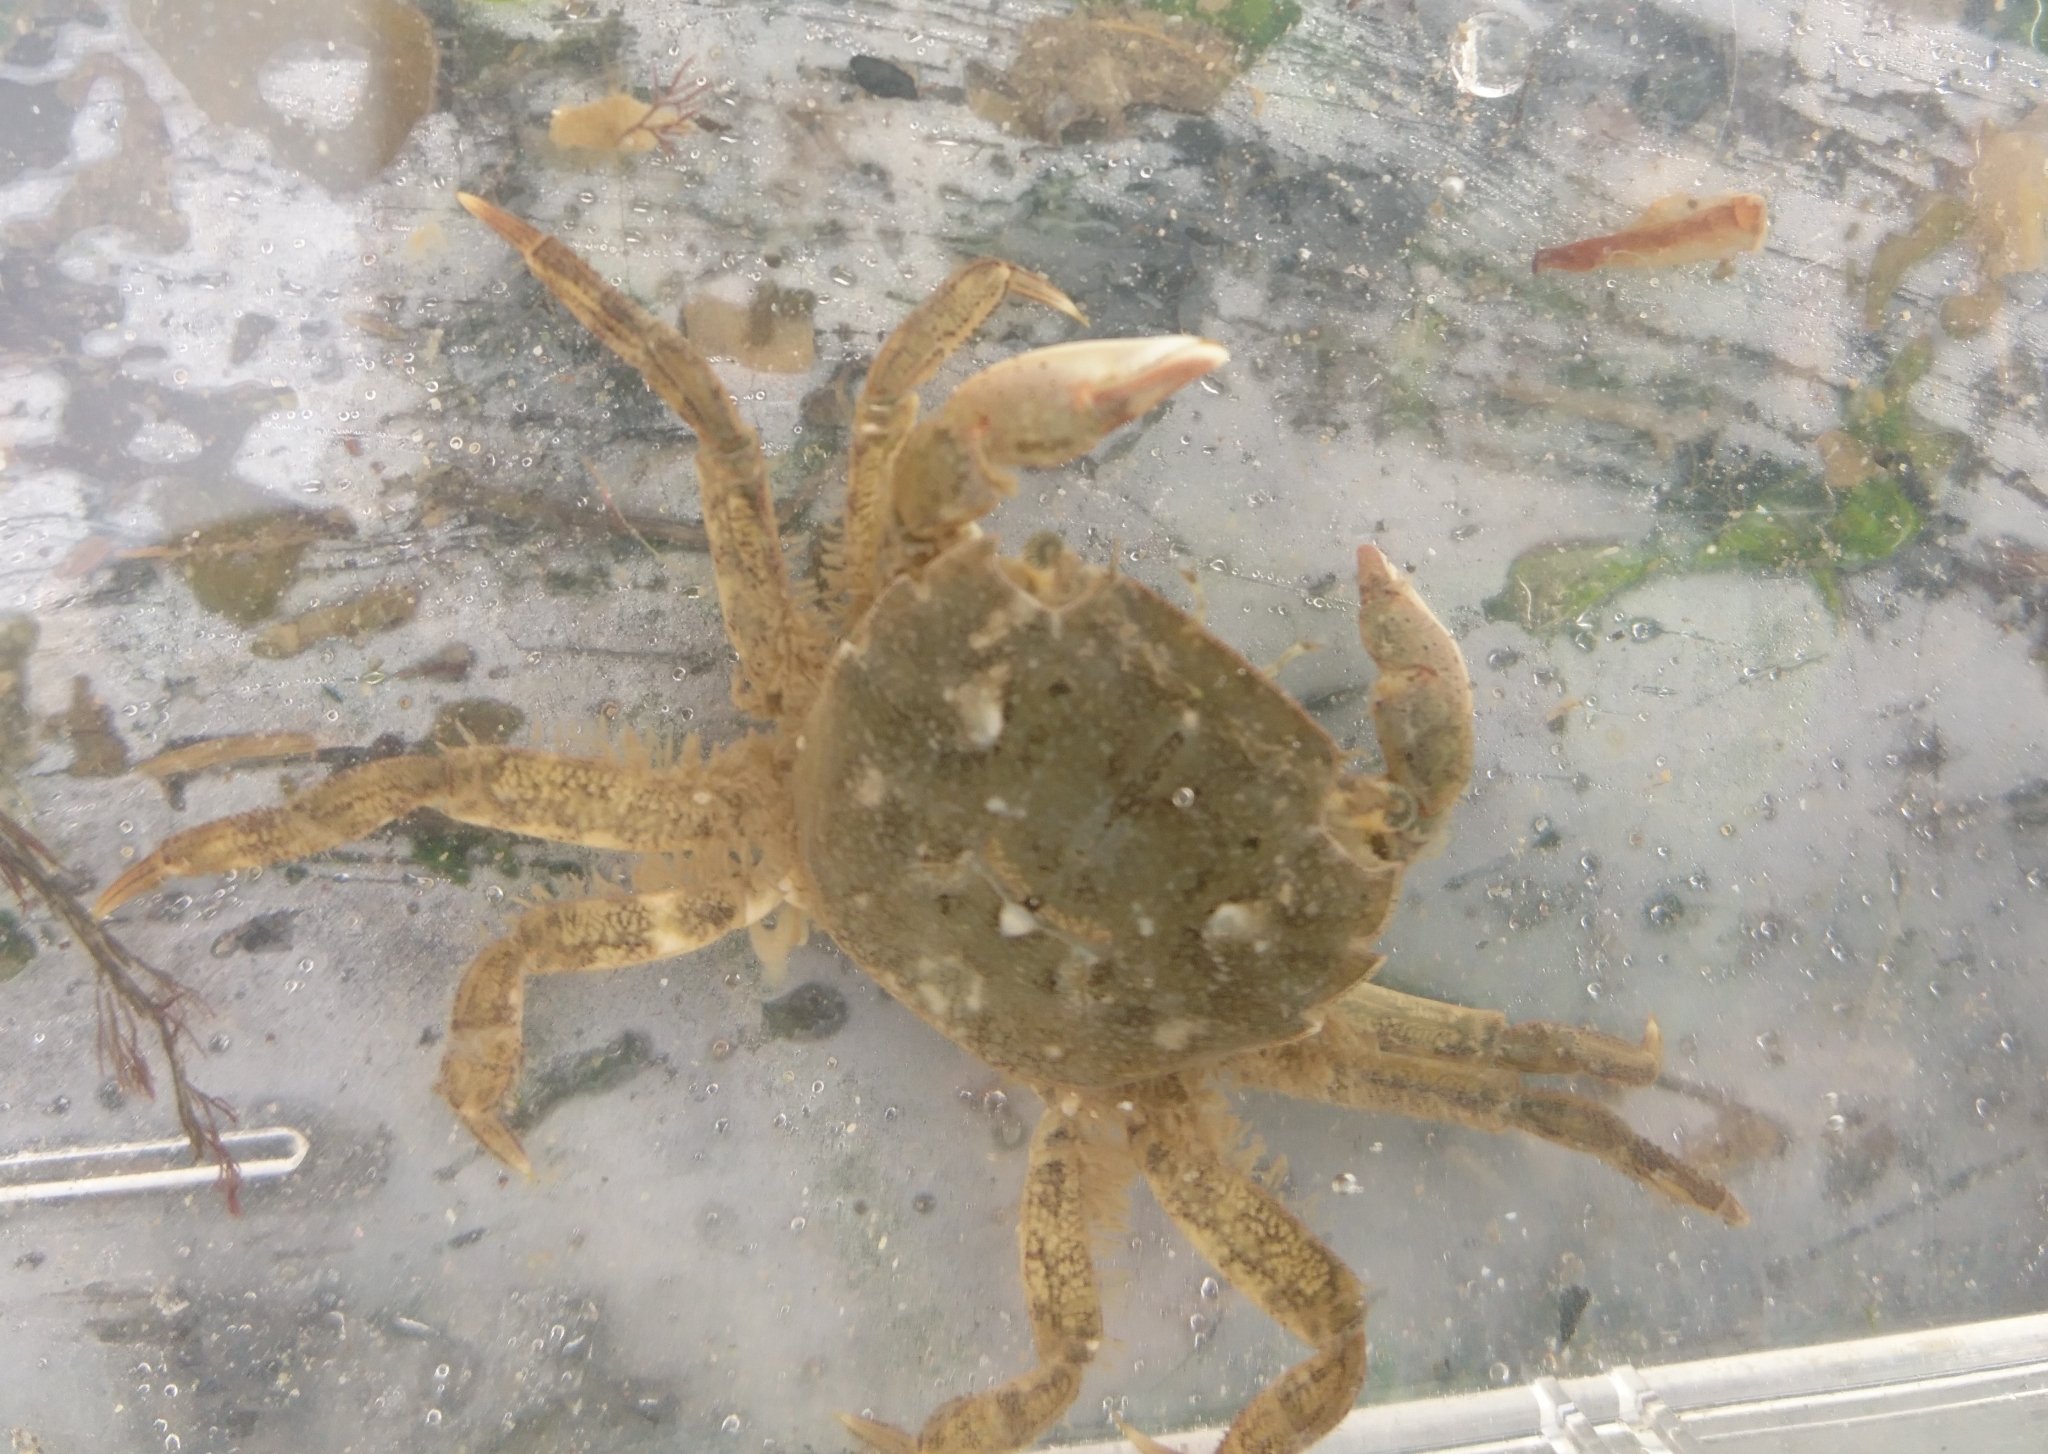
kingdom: Animalia
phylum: Arthropoda
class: Malacostraca
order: Decapoda
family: Varunidae
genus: Hemigrapsus
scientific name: Hemigrapsus takanoi
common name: Asian brush crab
